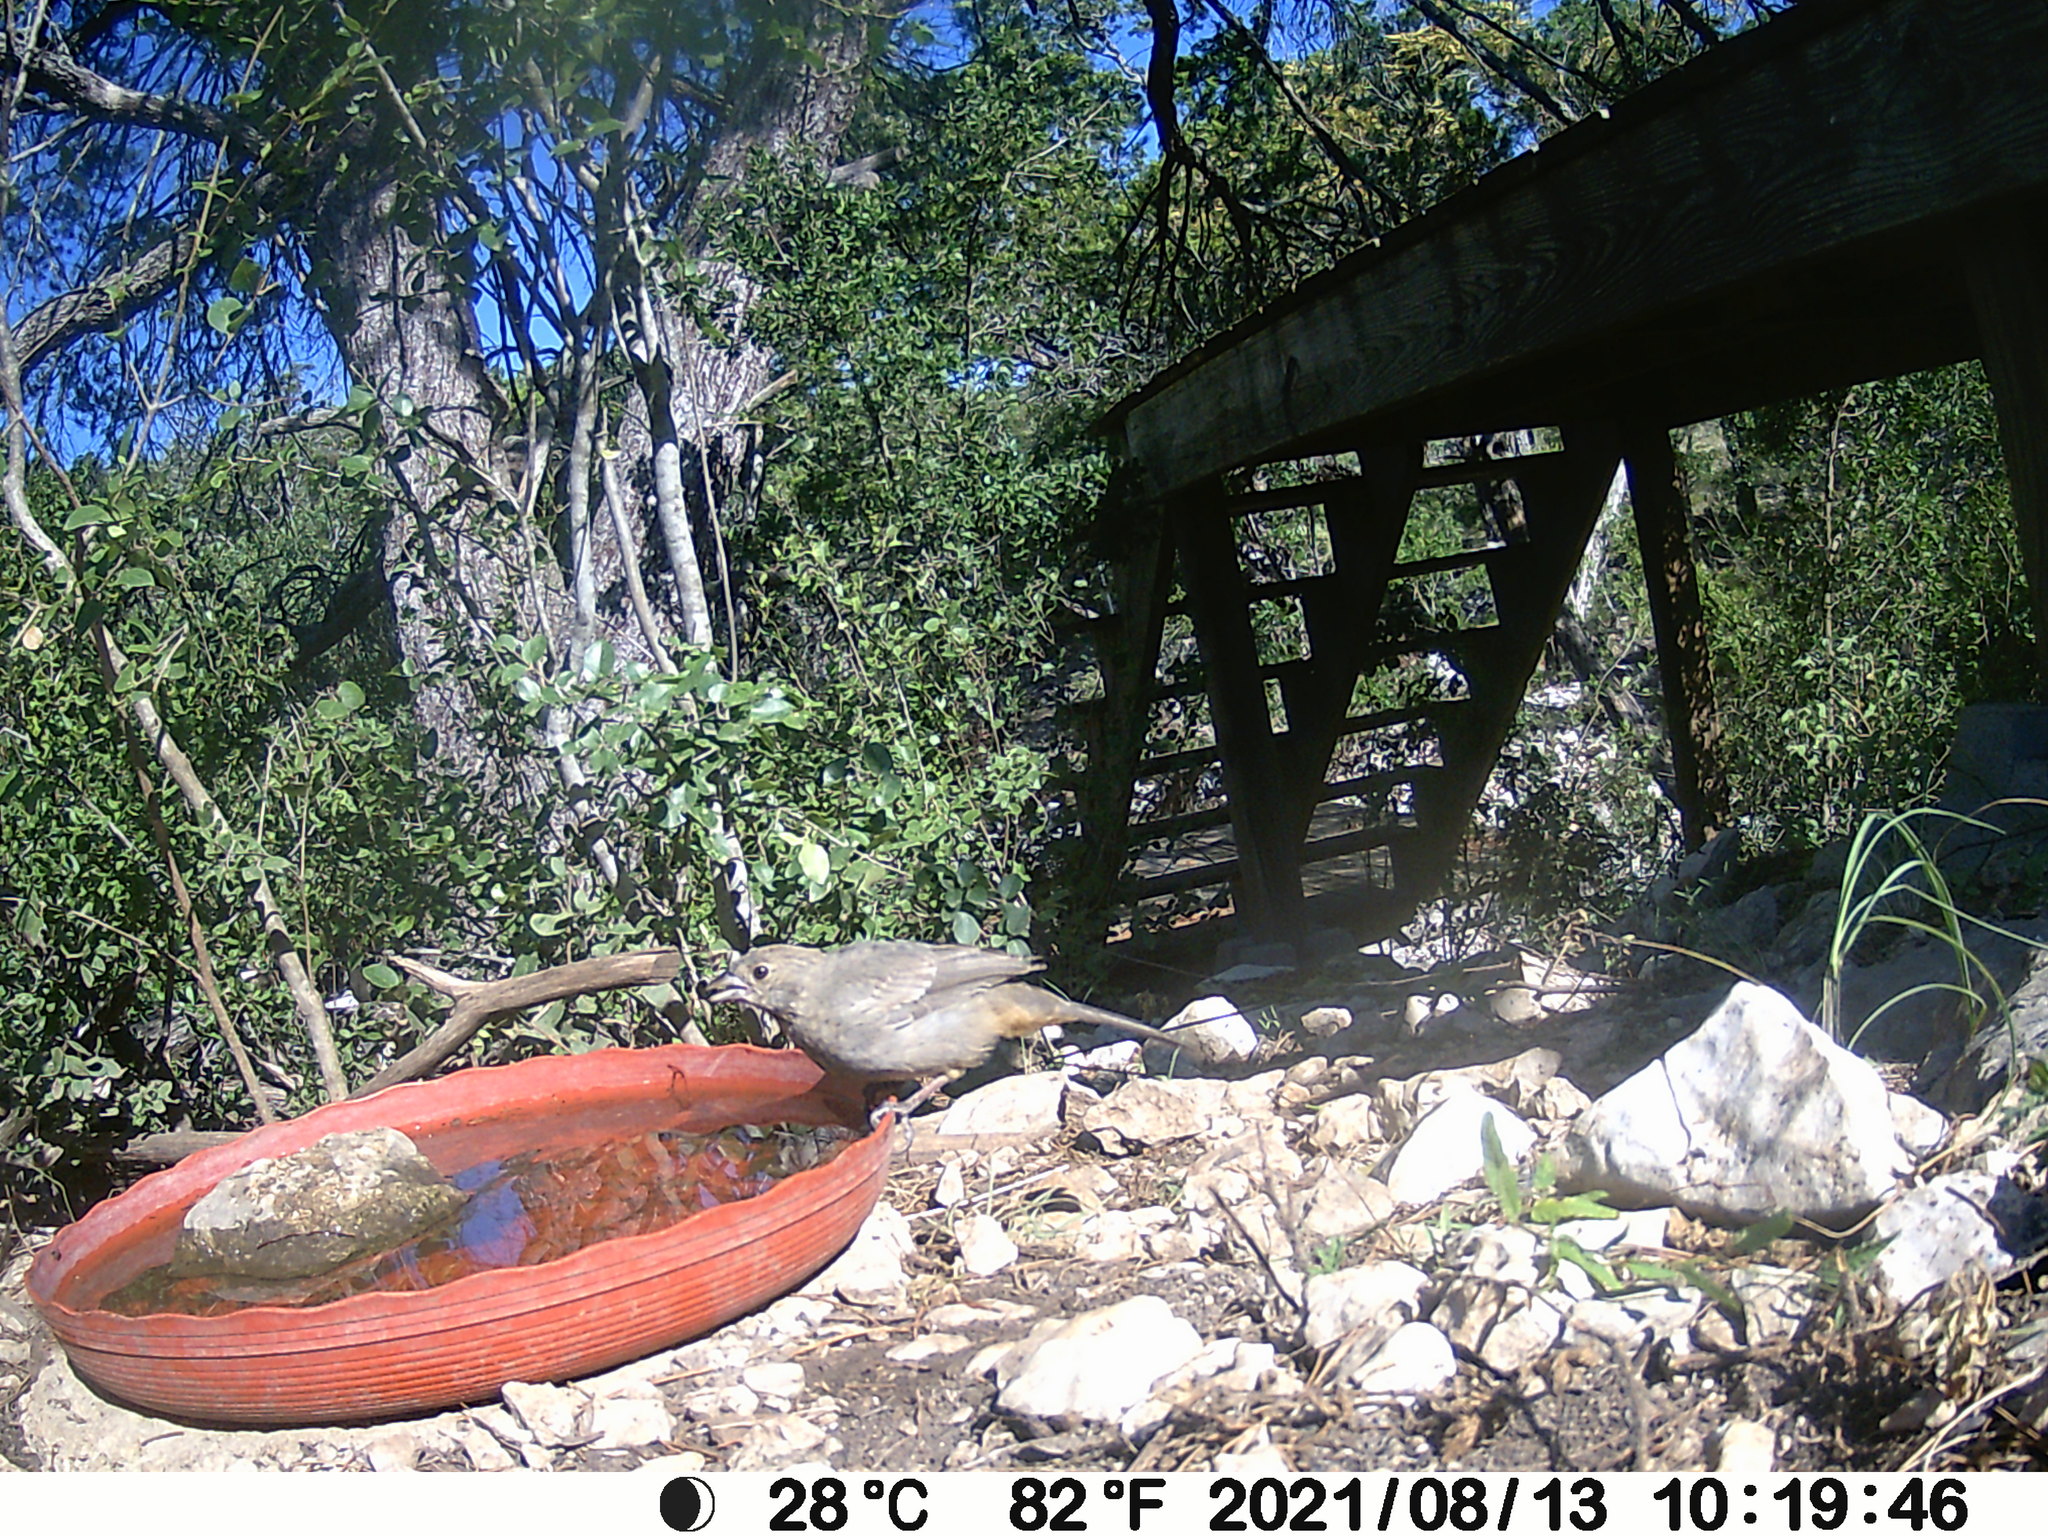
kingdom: Animalia
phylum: Chordata
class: Aves
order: Passeriformes
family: Passerellidae
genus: Melozone
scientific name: Melozone fusca
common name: Canyon towhee
